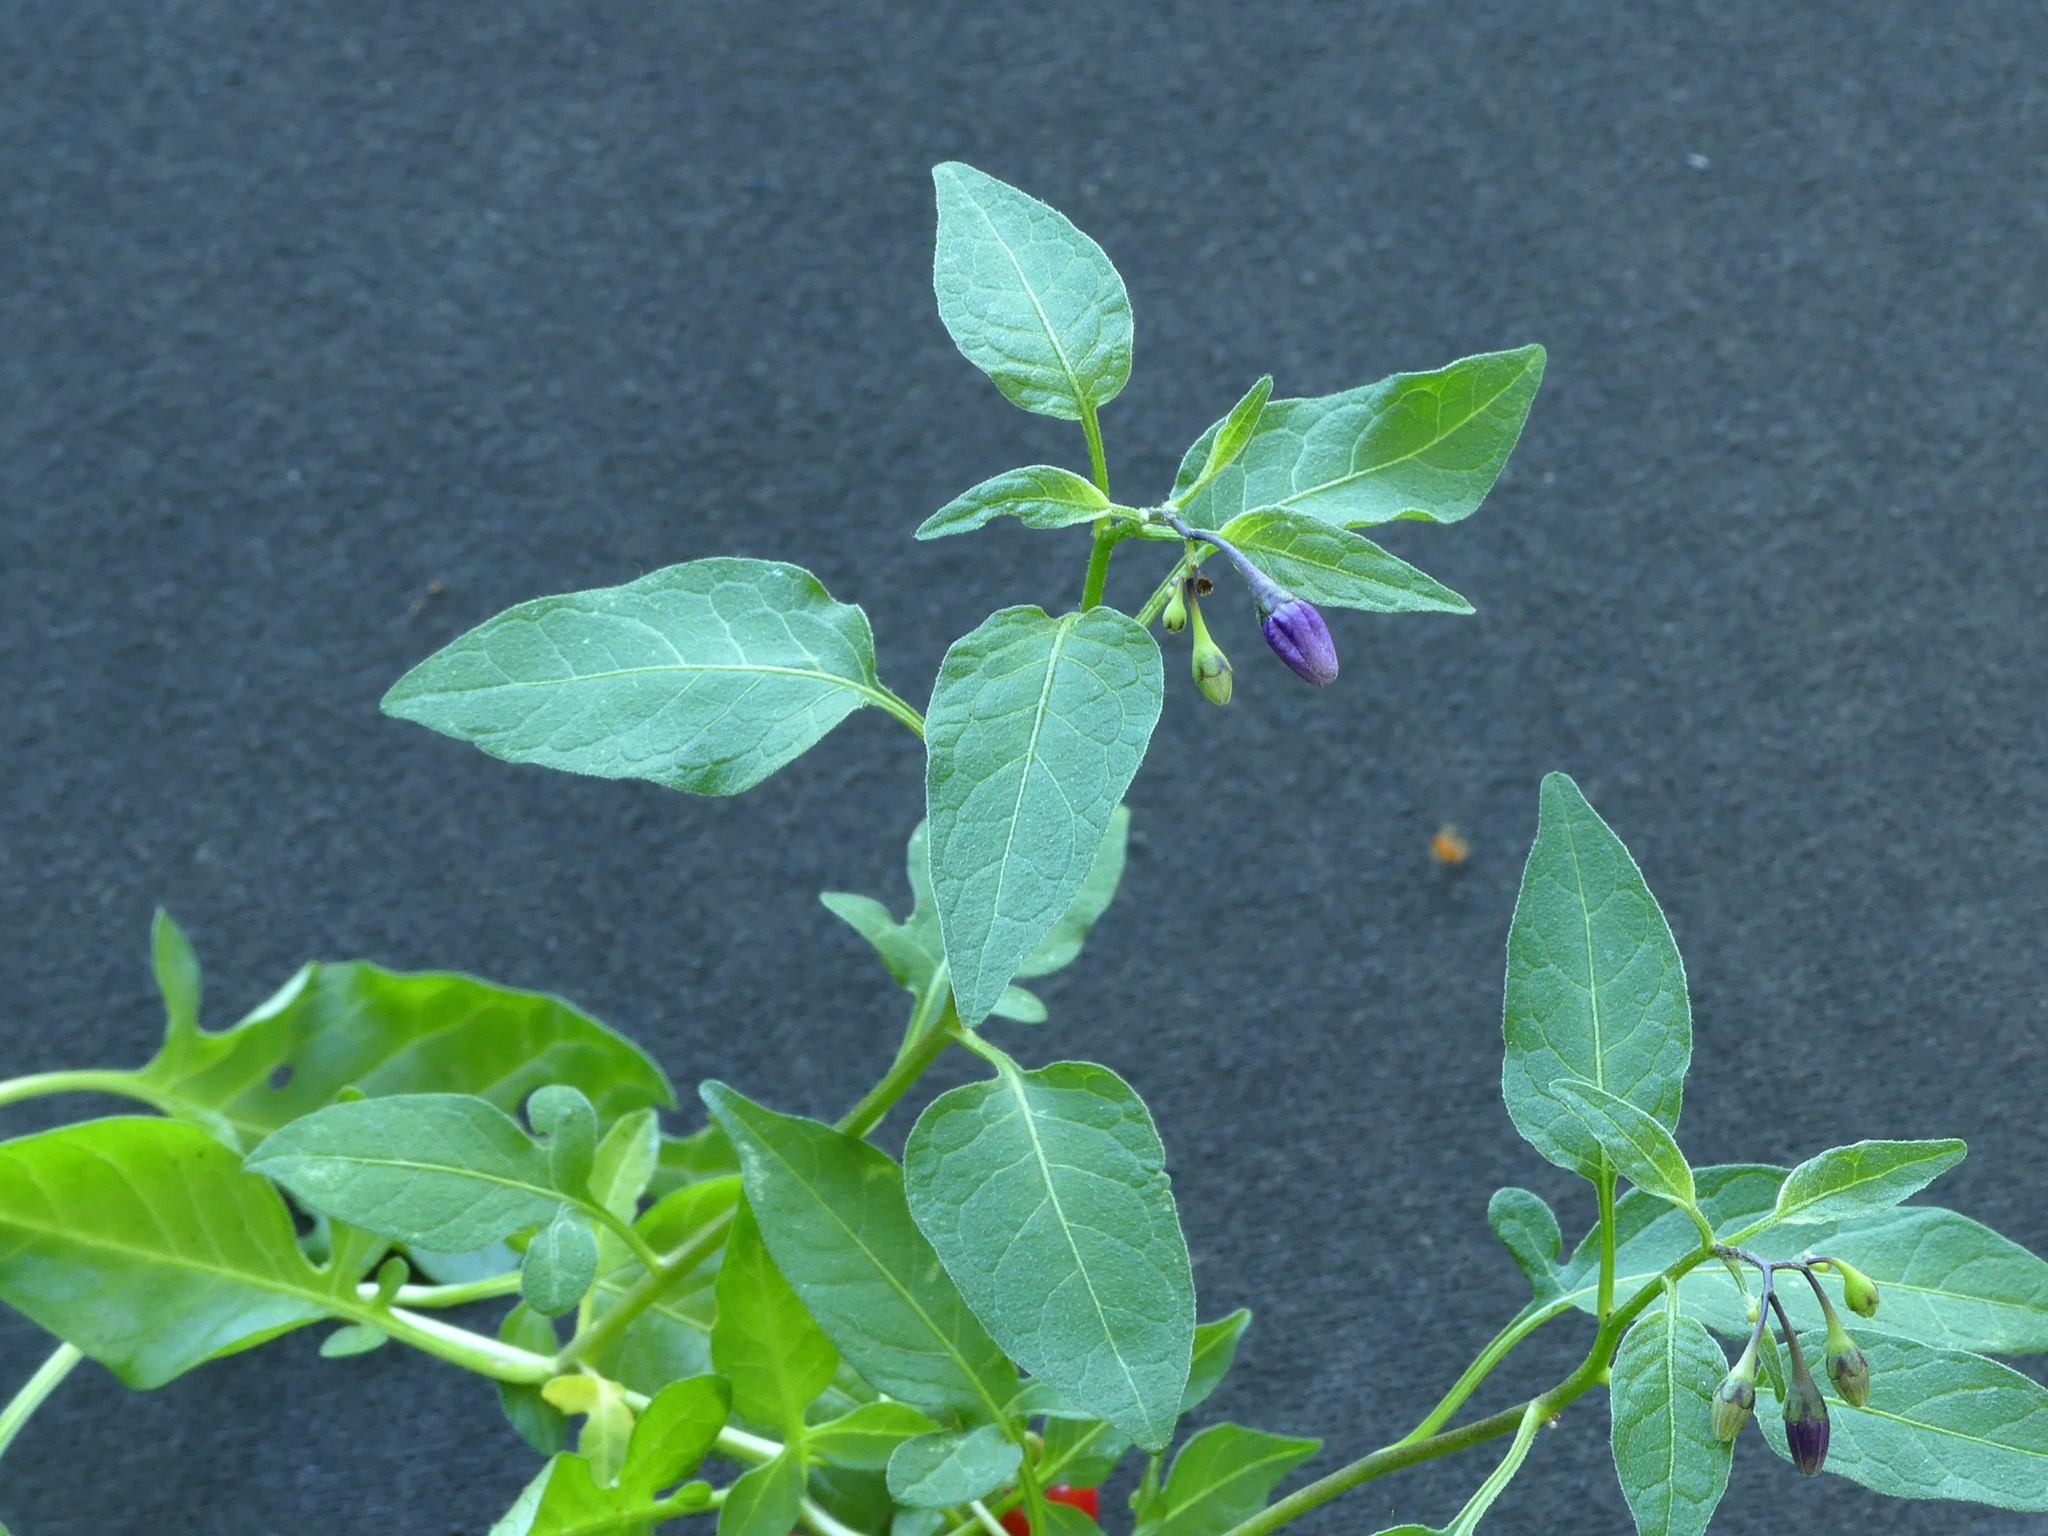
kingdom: Plantae
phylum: Tracheophyta
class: Magnoliopsida
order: Solanales
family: Solanaceae
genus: Solanum
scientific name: Solanum dulcamara
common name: Climbing nightshade
